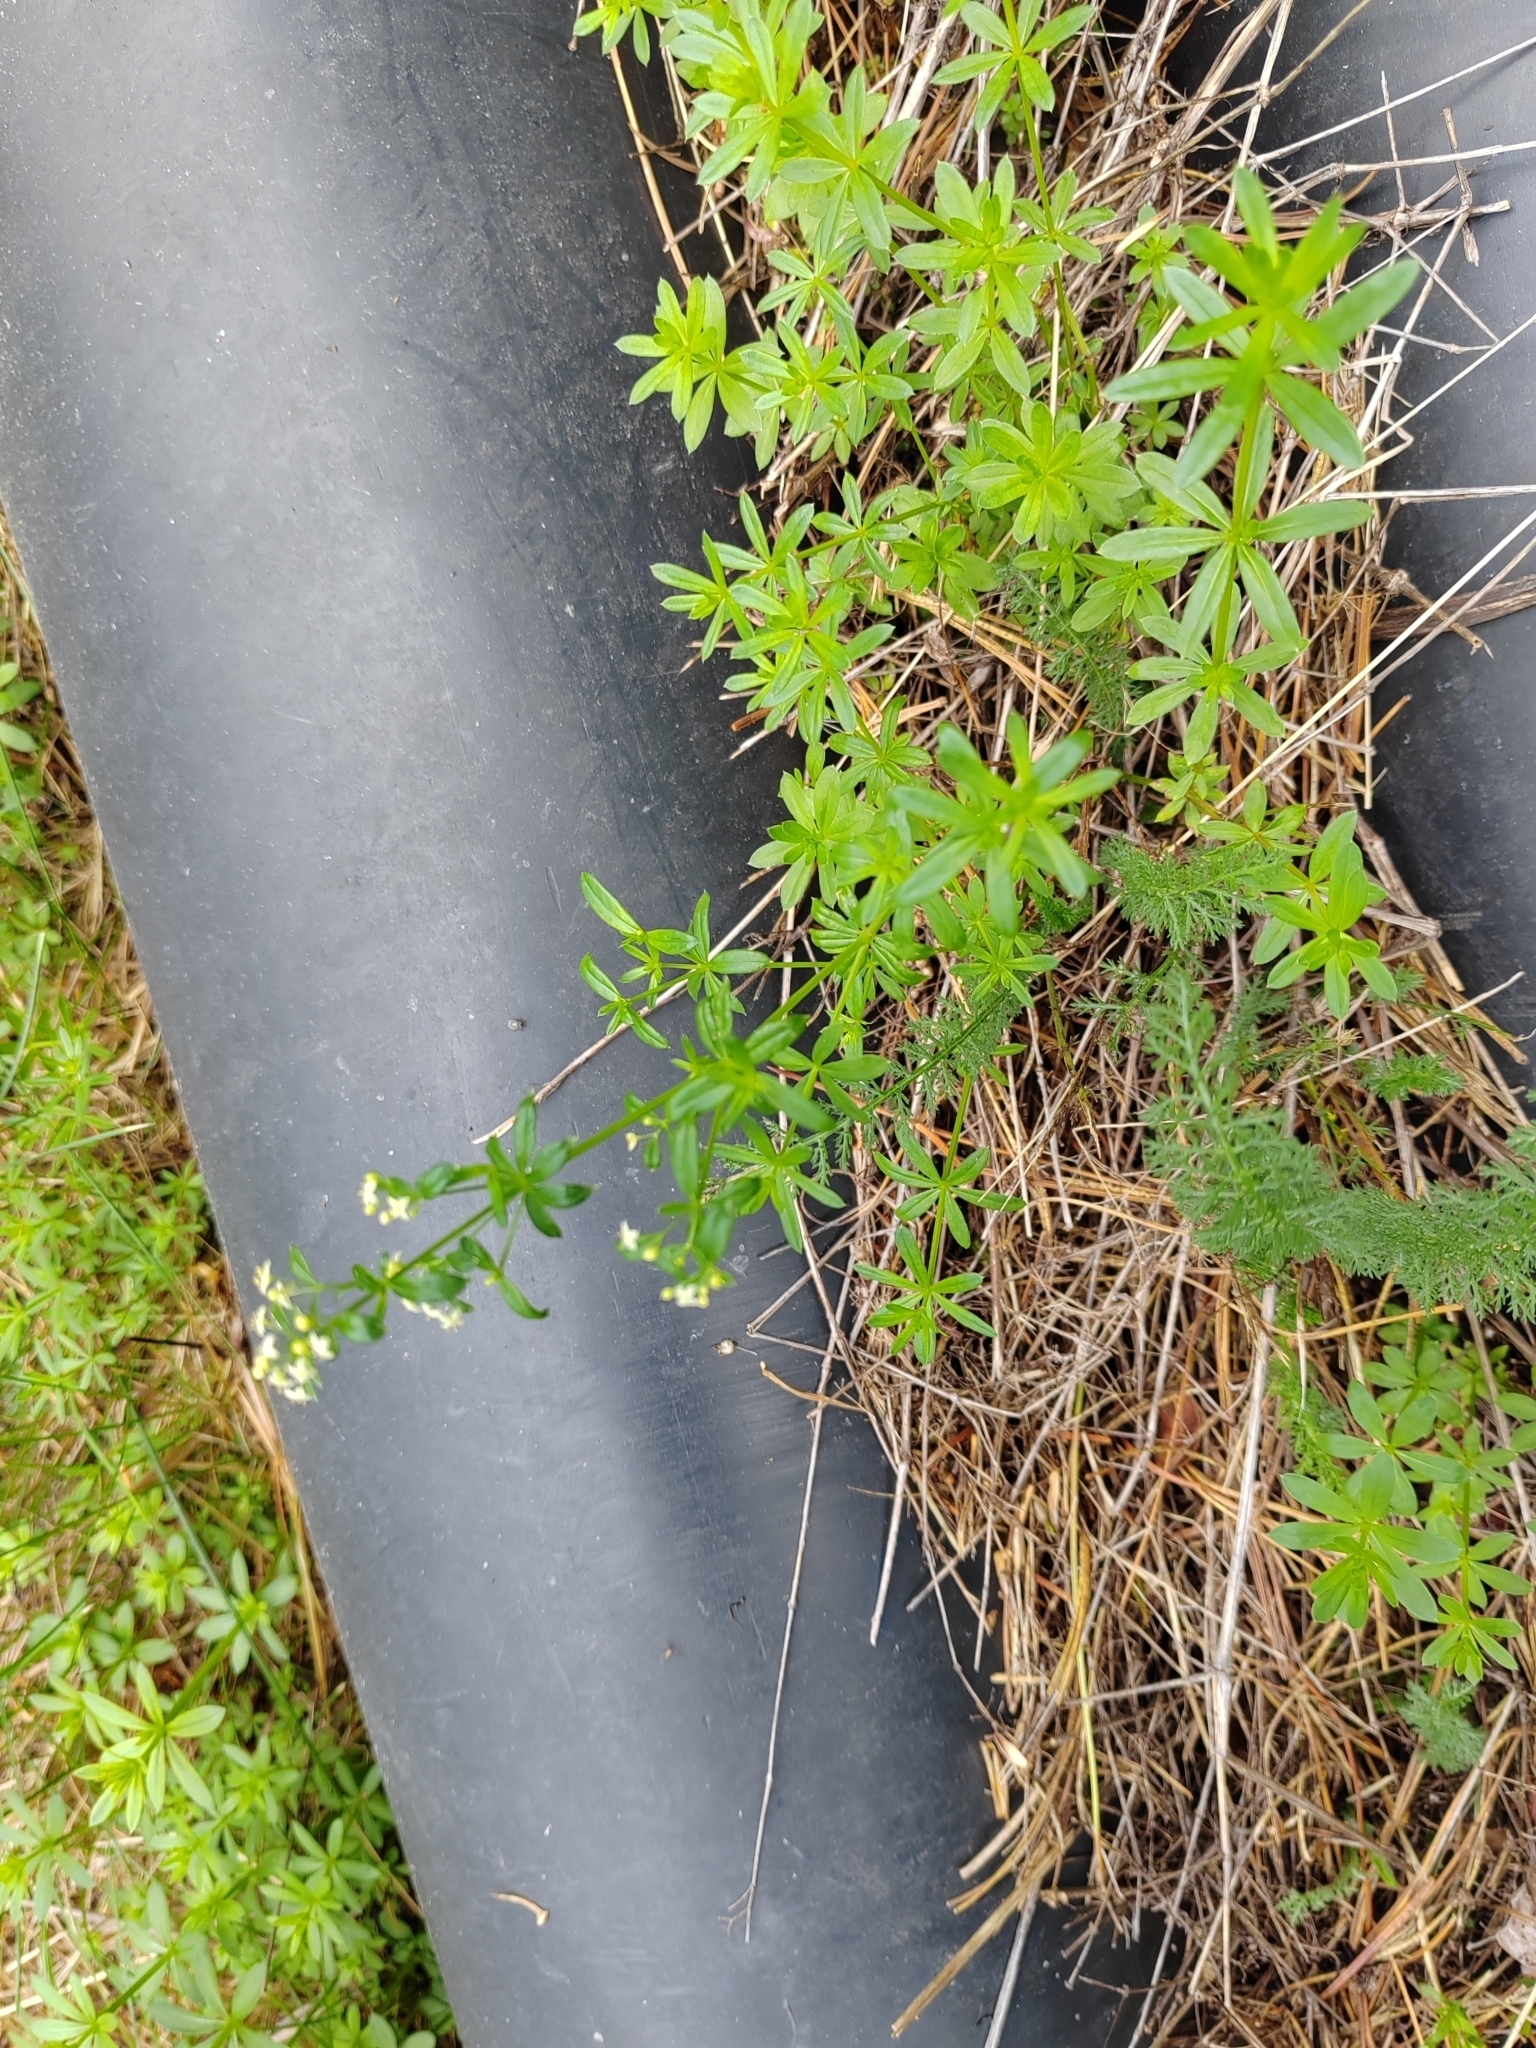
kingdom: Plantae
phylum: Tracheophyta
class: Magnoliopsida
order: Gentianales
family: Rubiaceae
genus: Galium
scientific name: Galium mollugo
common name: Hedge bedstraw
